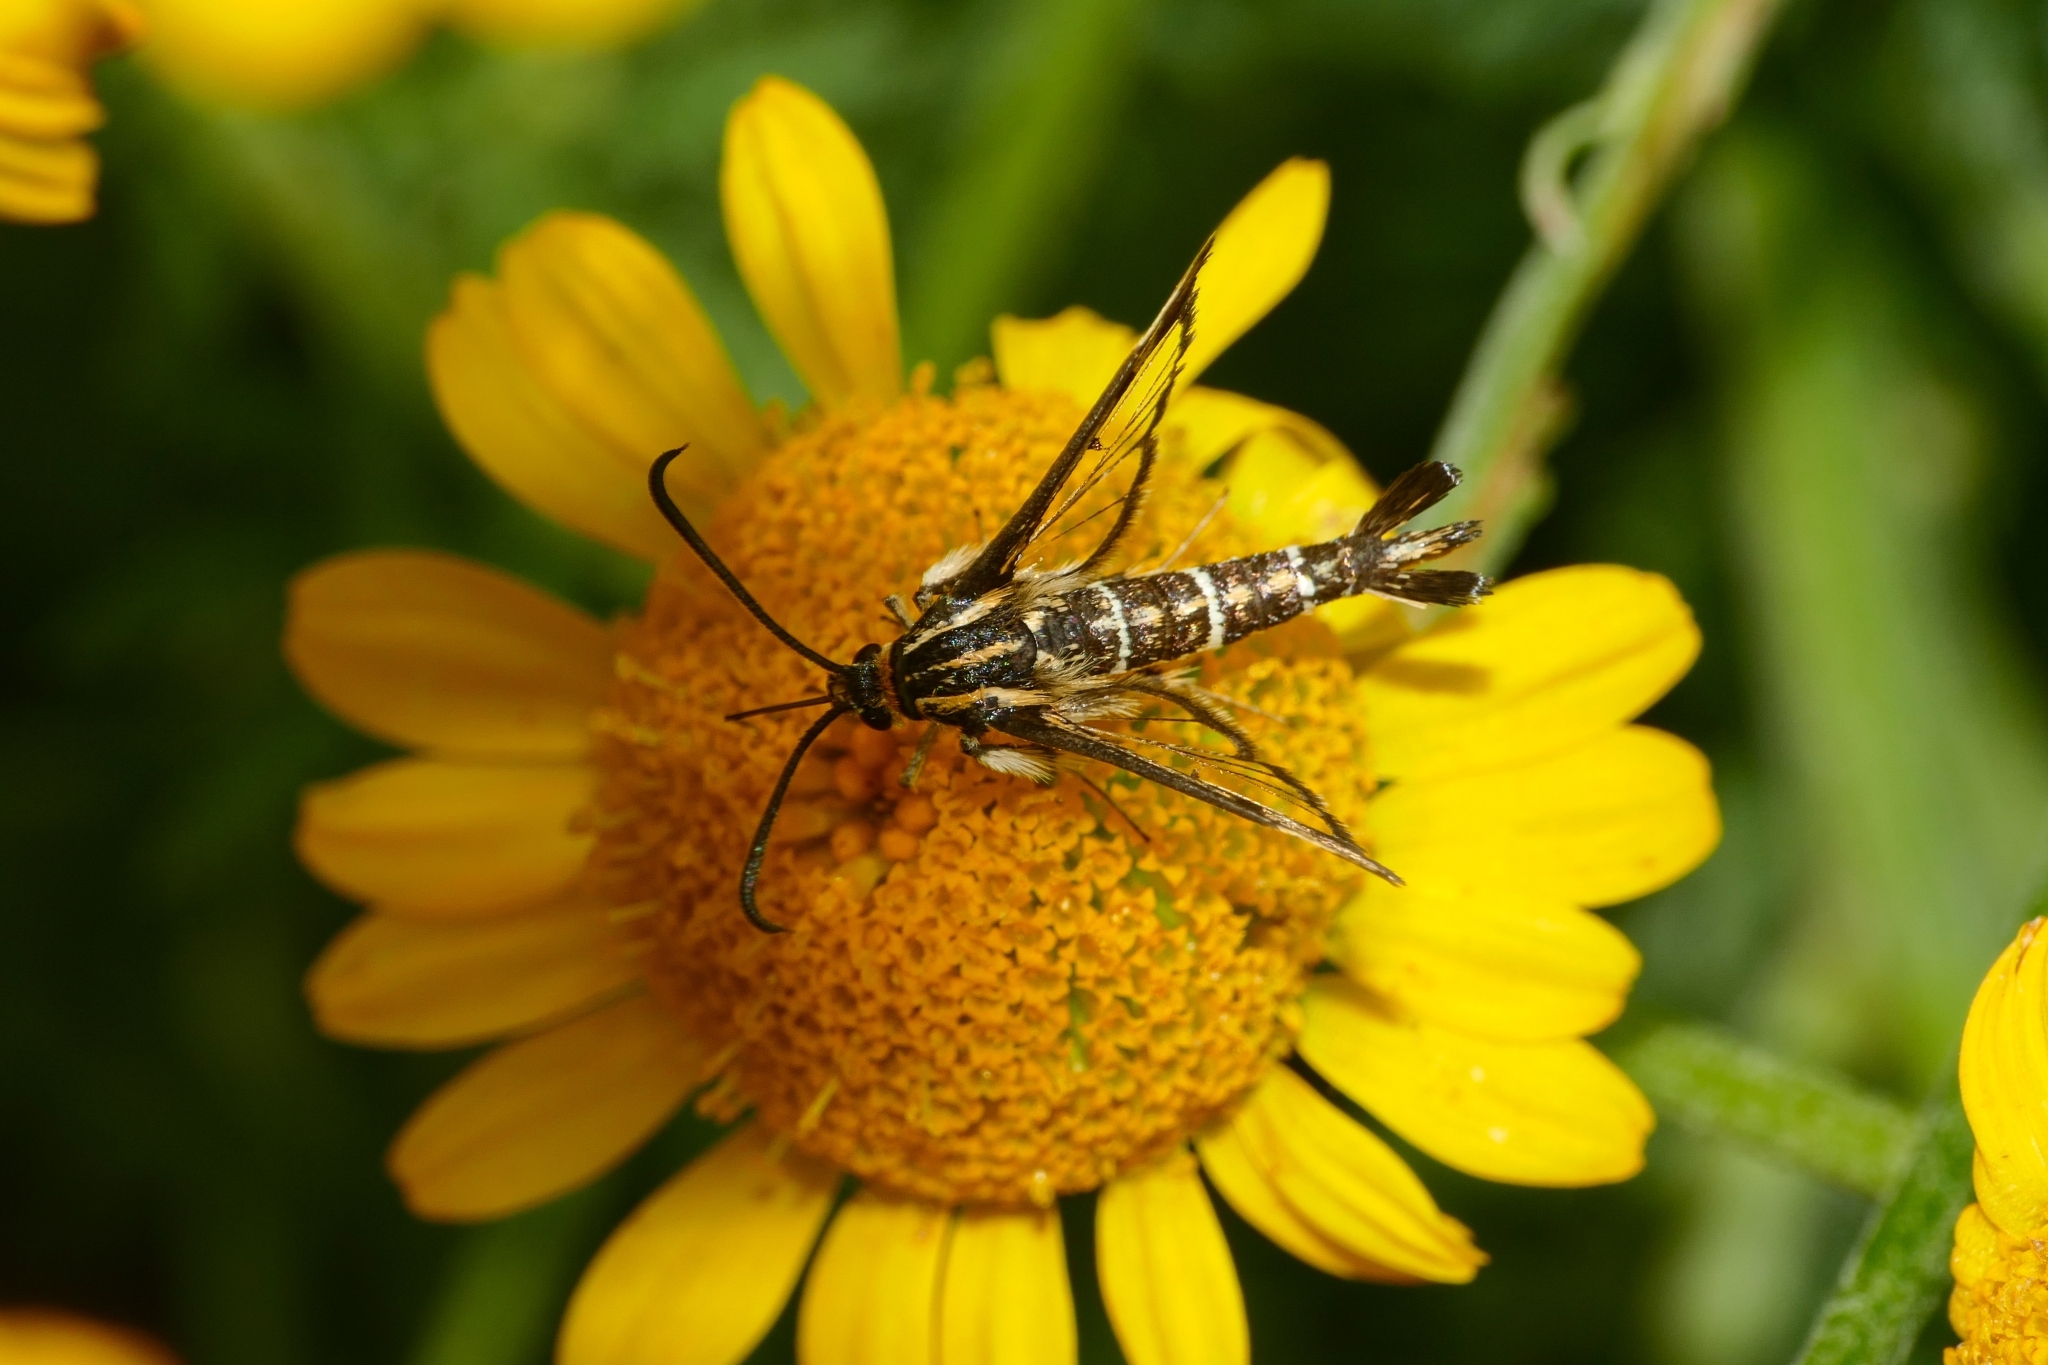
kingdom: Animalia
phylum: Arthropoda
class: Insecta
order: Lepidoptera
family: Sesiidae
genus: Pyropteron
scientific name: Pyropteron triannuliformis
